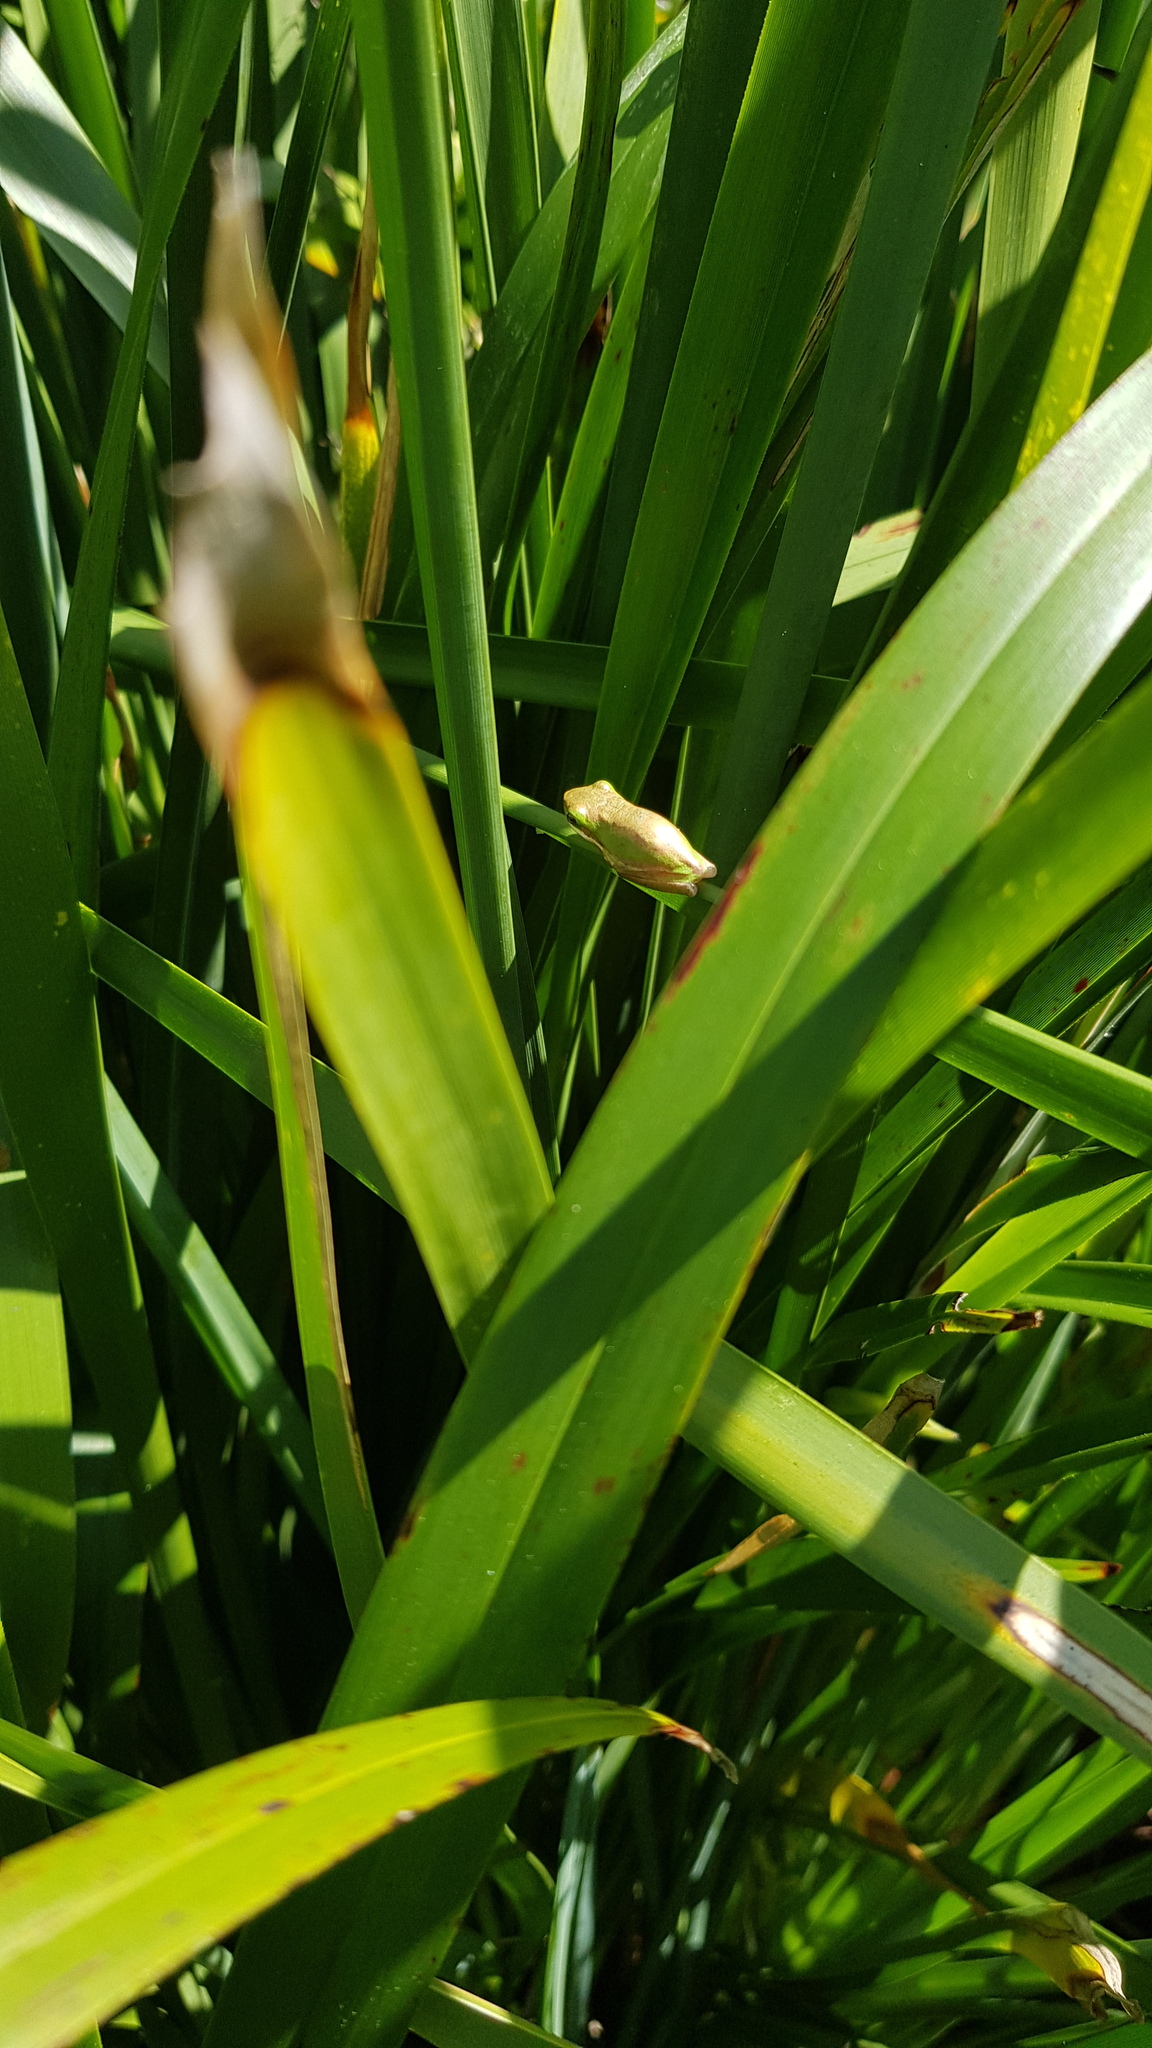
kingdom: Animalia
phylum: Chordata
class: Amphibia
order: Anura
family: Pelodryadidae
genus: Litoria
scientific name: Litoria fallax
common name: Eastern dwarf treefrog
